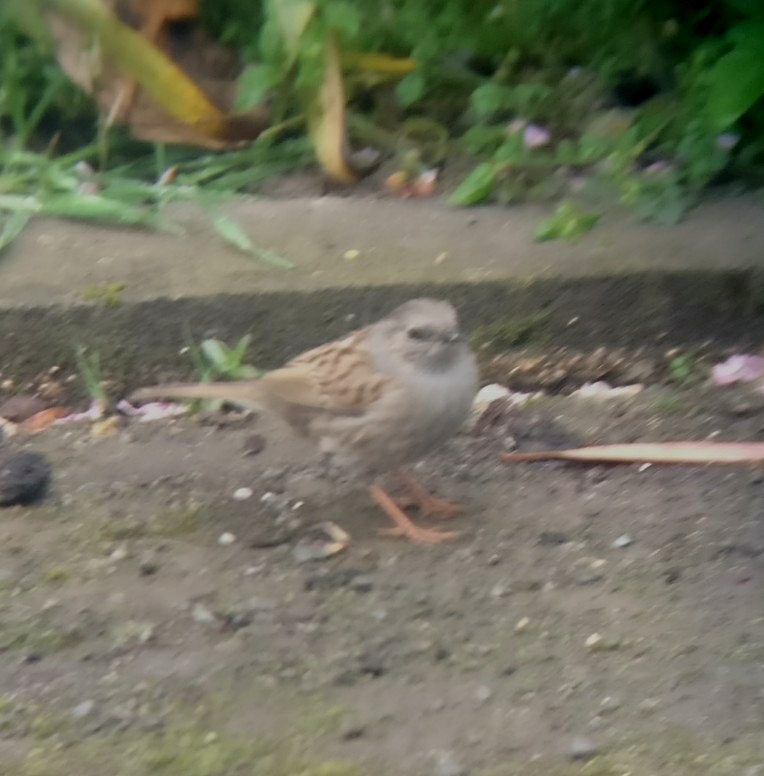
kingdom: Animalia
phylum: Chordata
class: Aves
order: Passeriformes
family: Prunellidae
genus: Prunella
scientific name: Prunella modularis
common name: Dunnock
